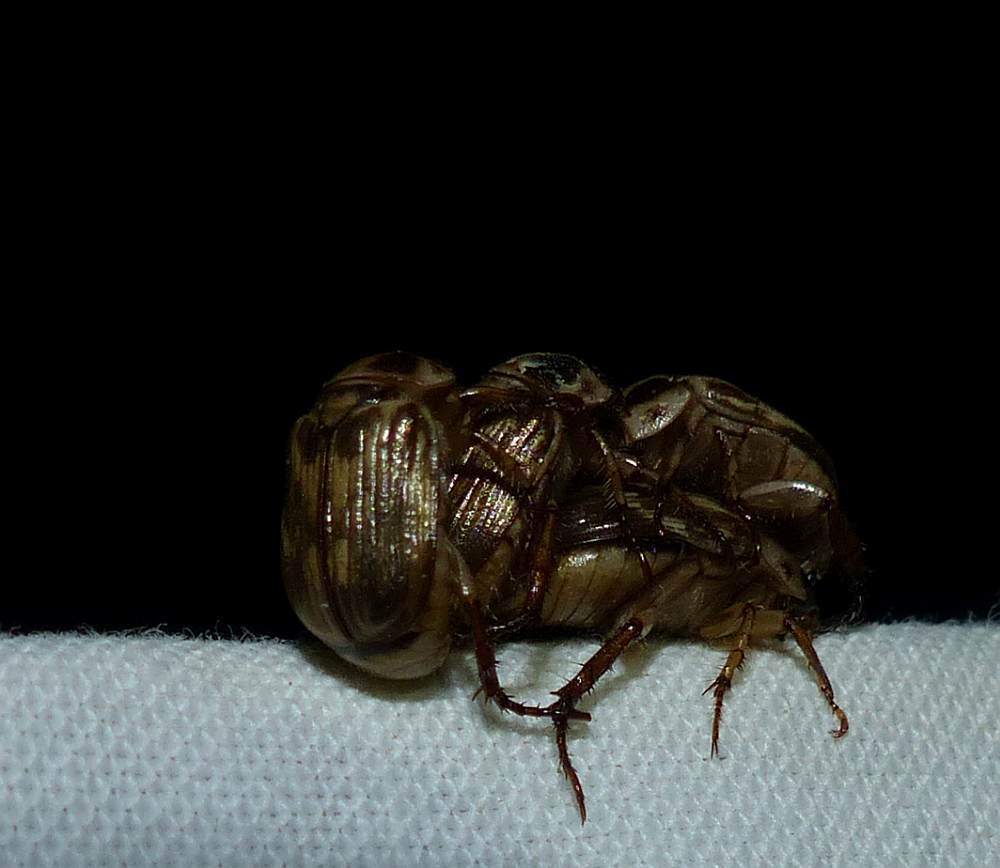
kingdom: Animalia
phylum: Arthropoda
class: Insecta
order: Coleoptera
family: Scarabaeidae
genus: Exomala
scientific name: Exomala orientalis
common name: Oriental beetle
